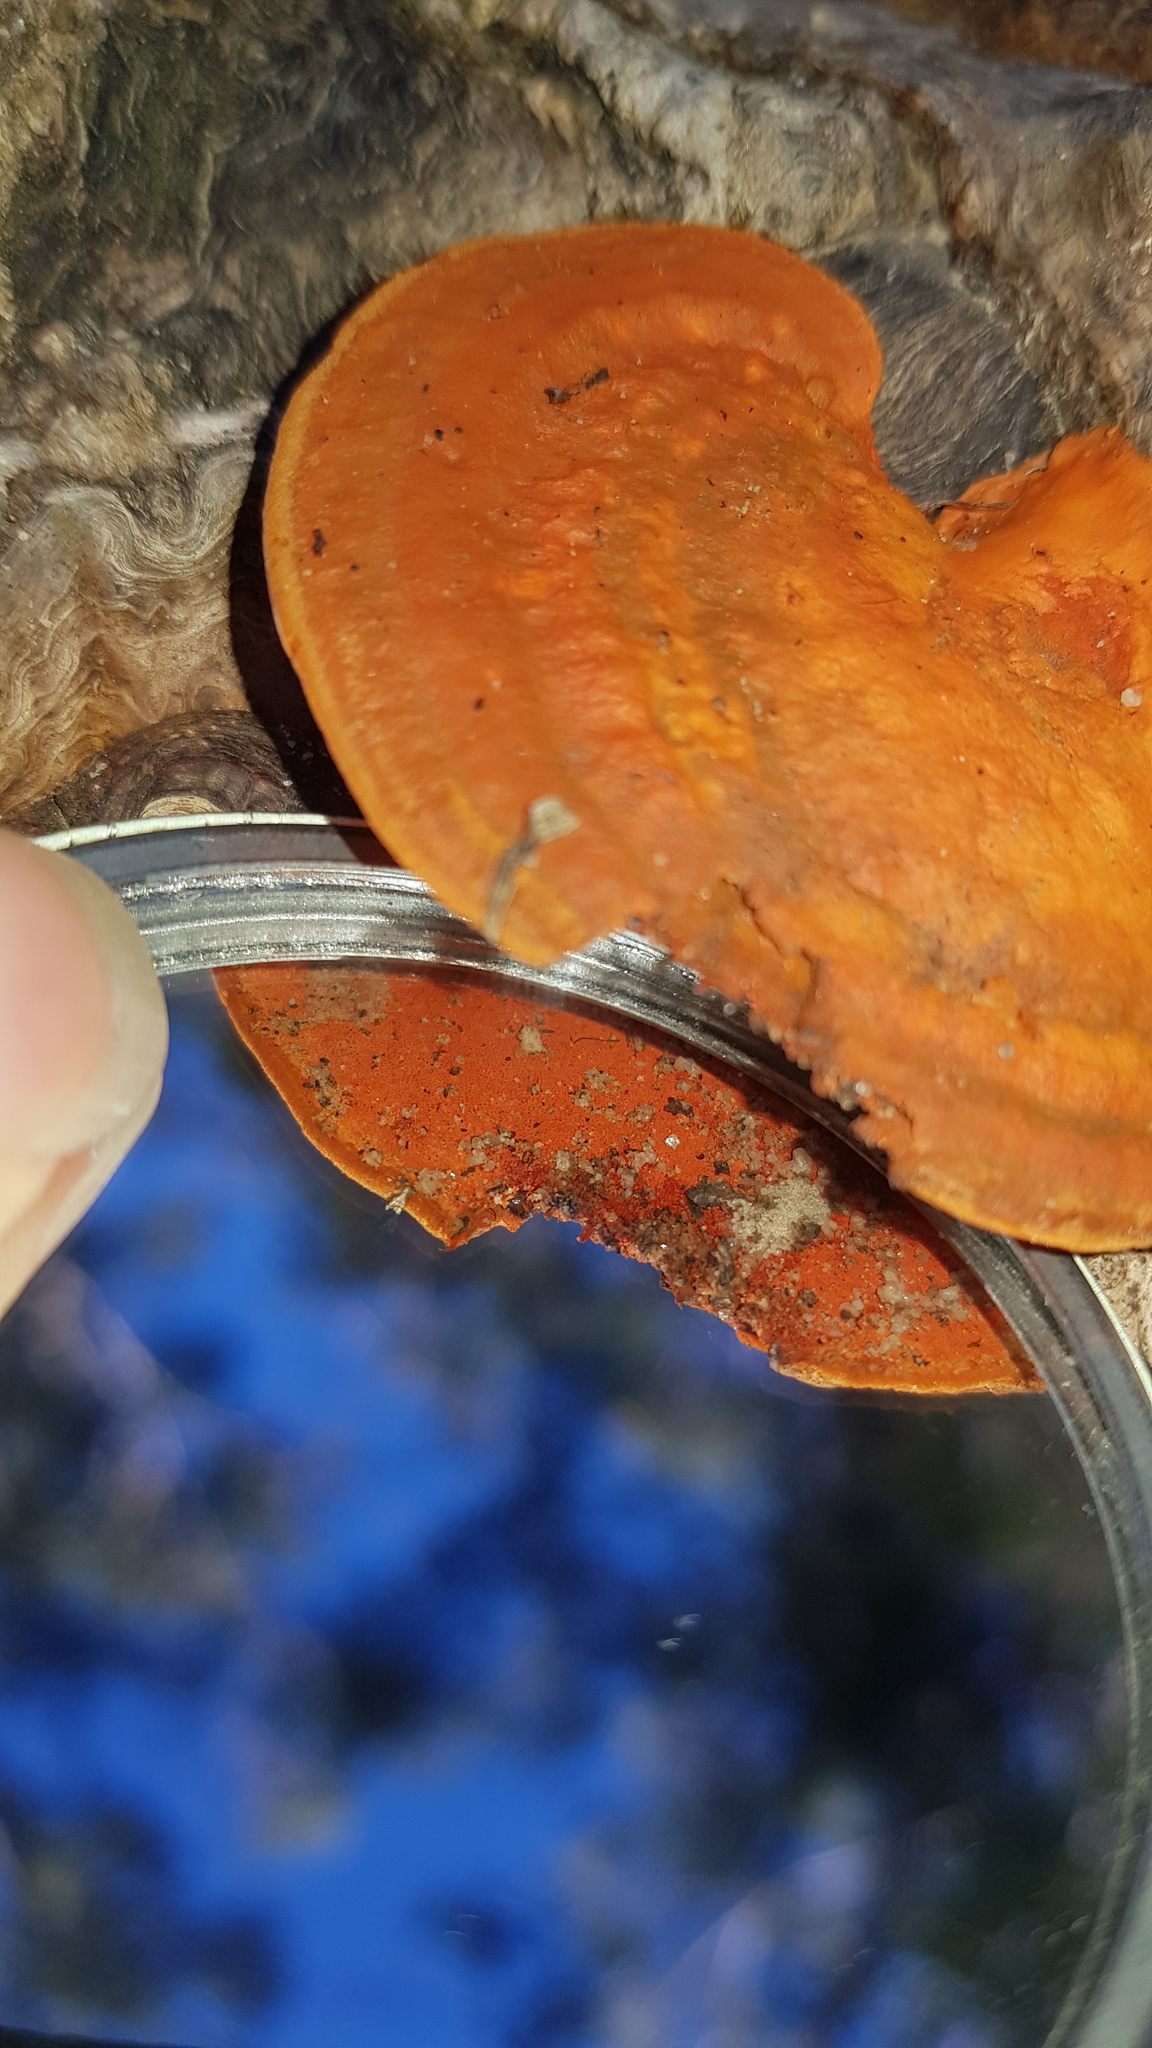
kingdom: Fungi
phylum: Basidiomycota
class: Agaricomycetes
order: Polyporales
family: Polyporaceae
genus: Trametes
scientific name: Trametes coccinea
